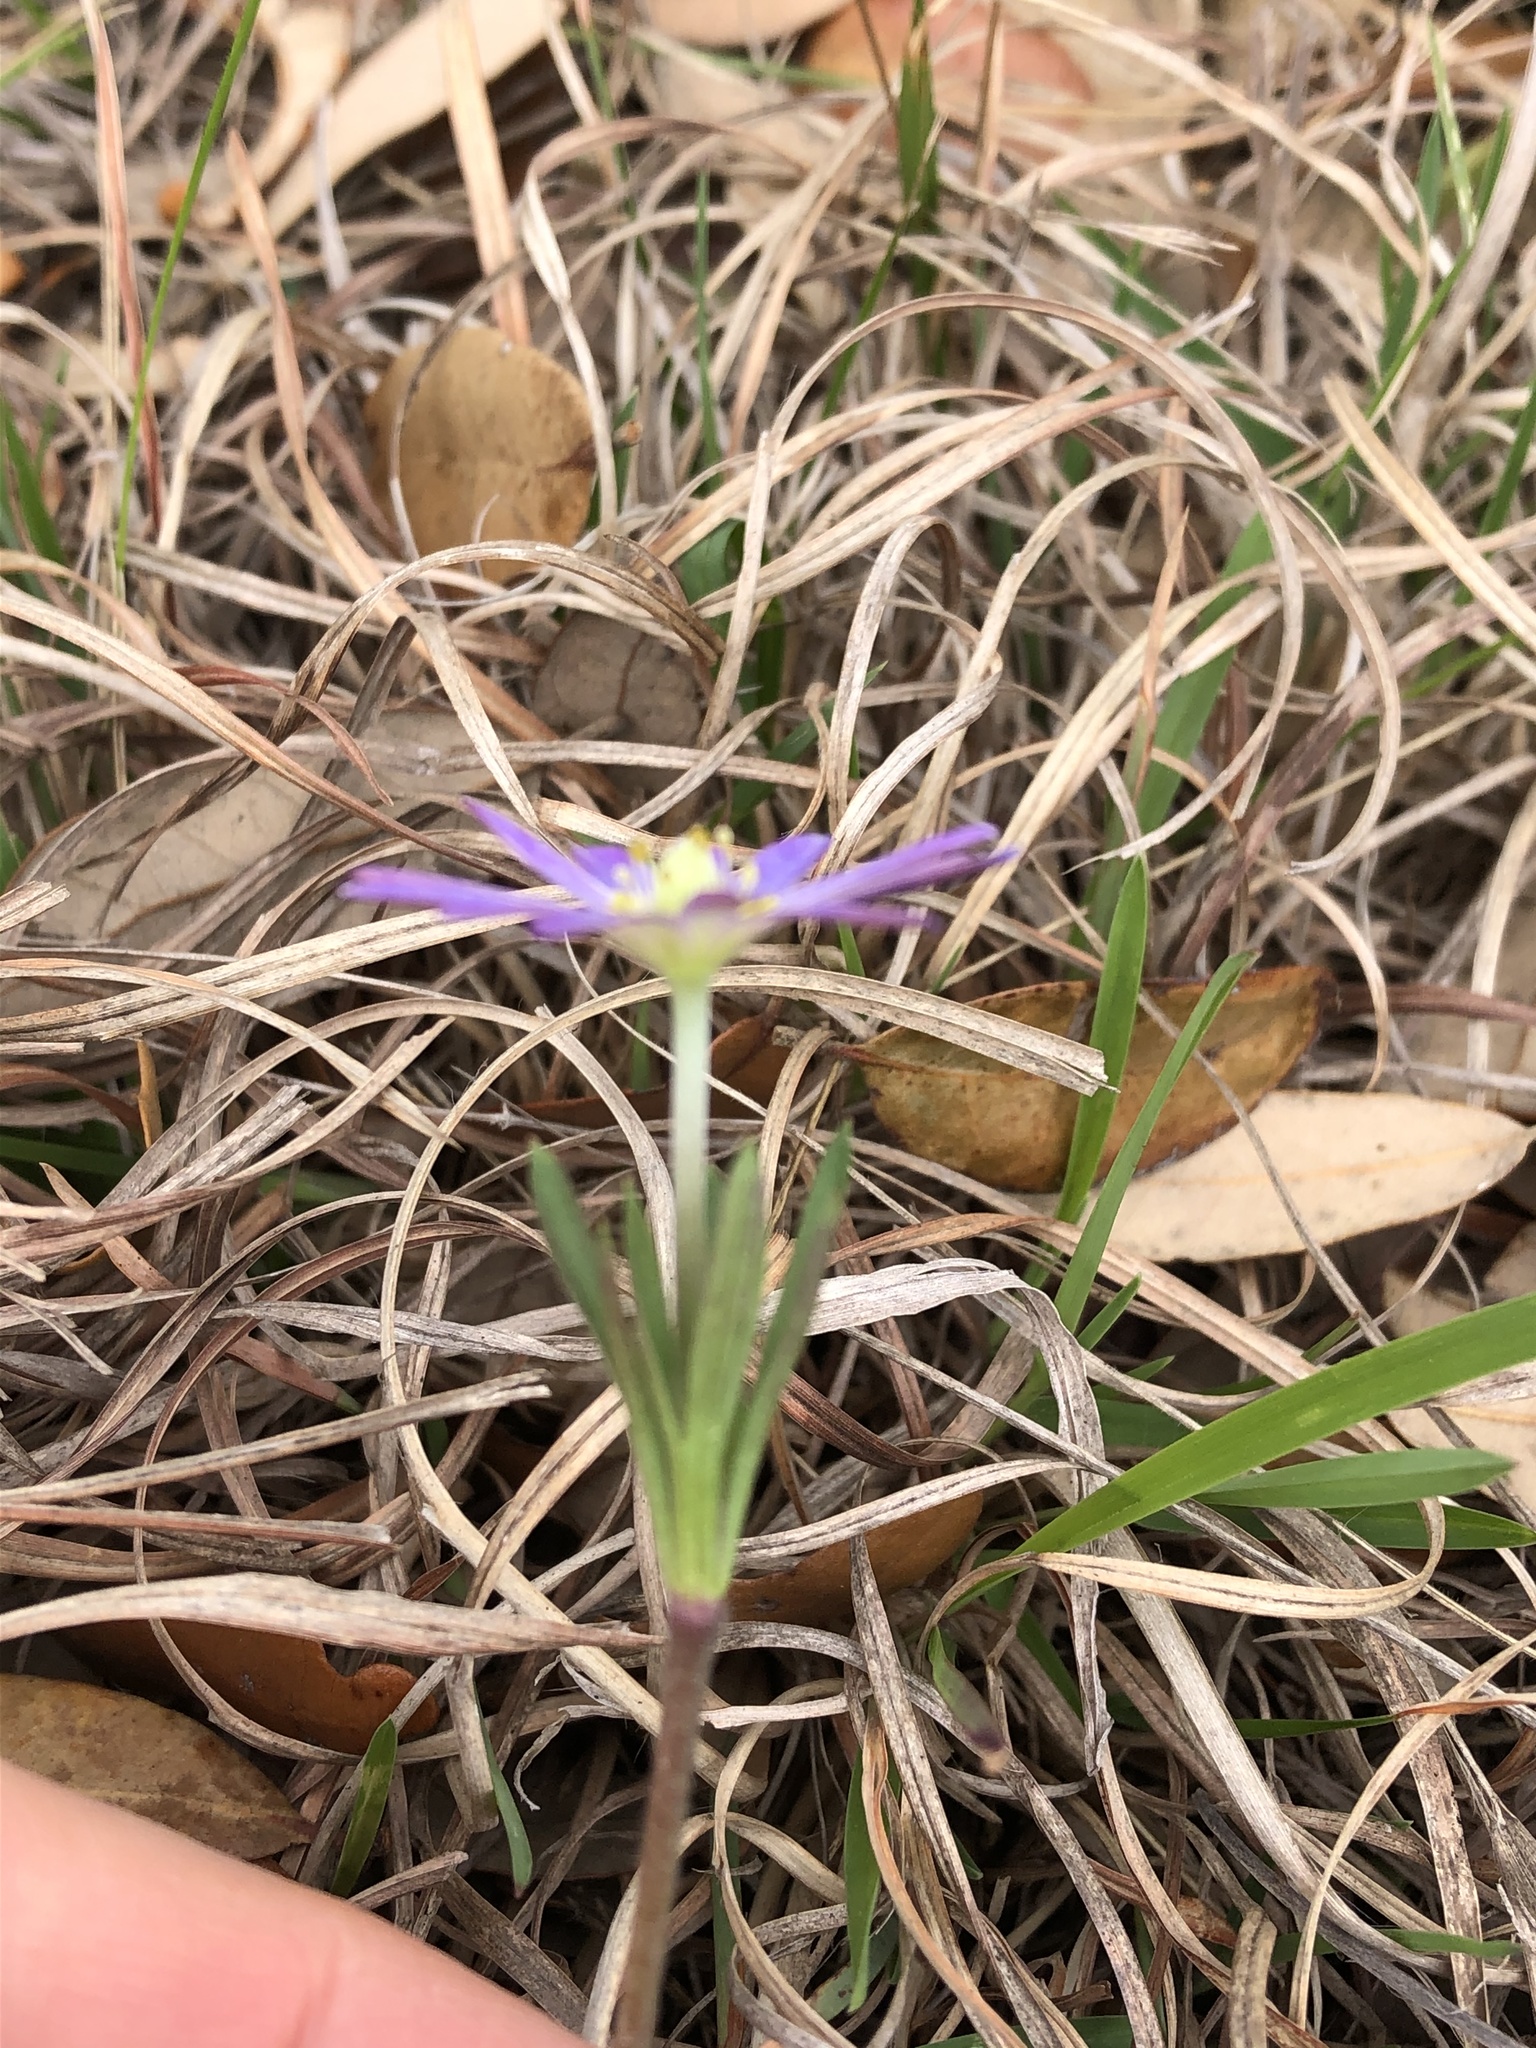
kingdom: Plantae
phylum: Tracheophyta
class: Magnoliopsida
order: Ranunculales
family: Ranunculaceae
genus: Anemone
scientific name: Anemone berlandieri
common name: Ten-petal anemone
